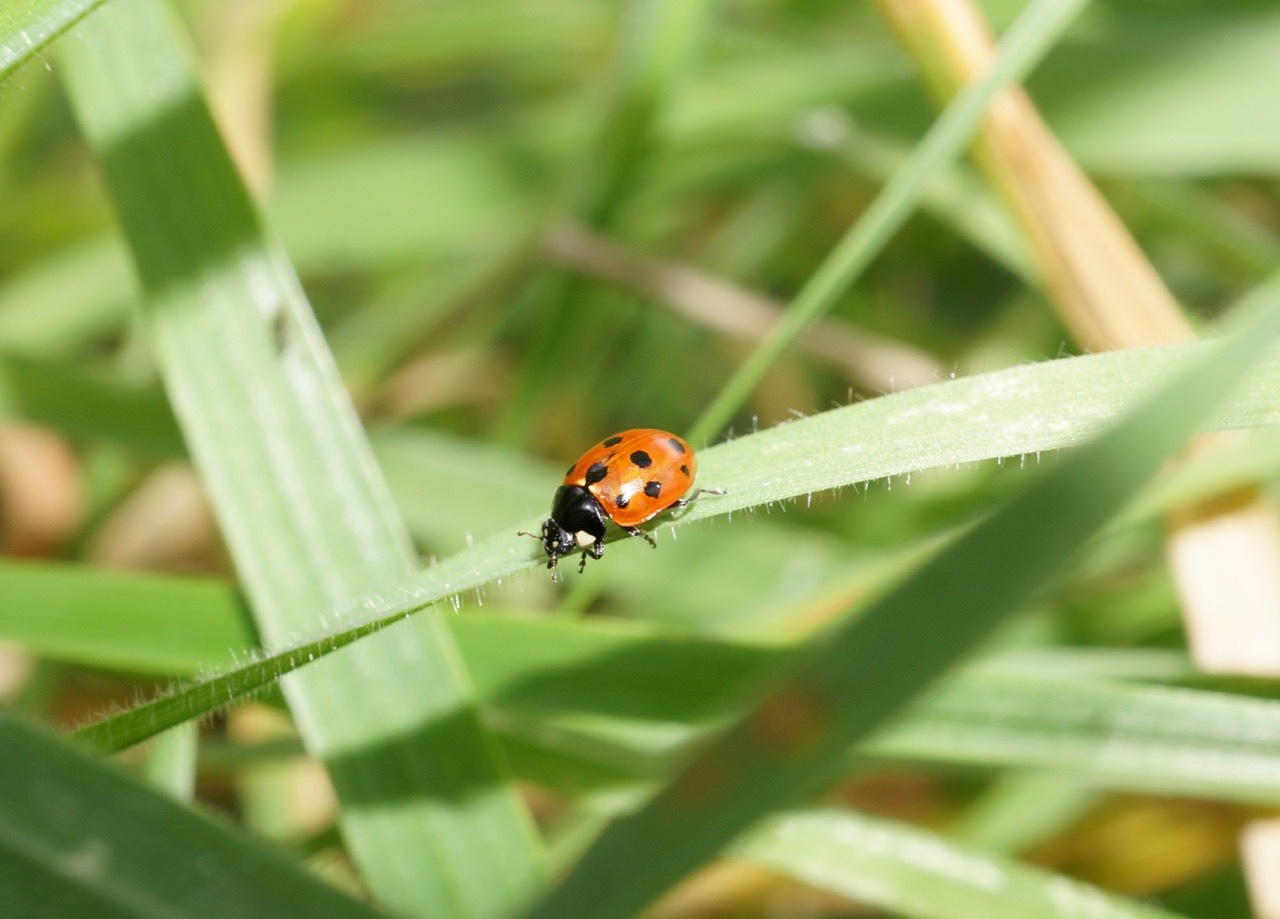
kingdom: Animalia
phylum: Arthropoda
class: Insecta
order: Coleoptera
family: Coccinellidae
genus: Coccinella
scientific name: Coccinella undecimpunctata
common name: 11-spot ladybird
